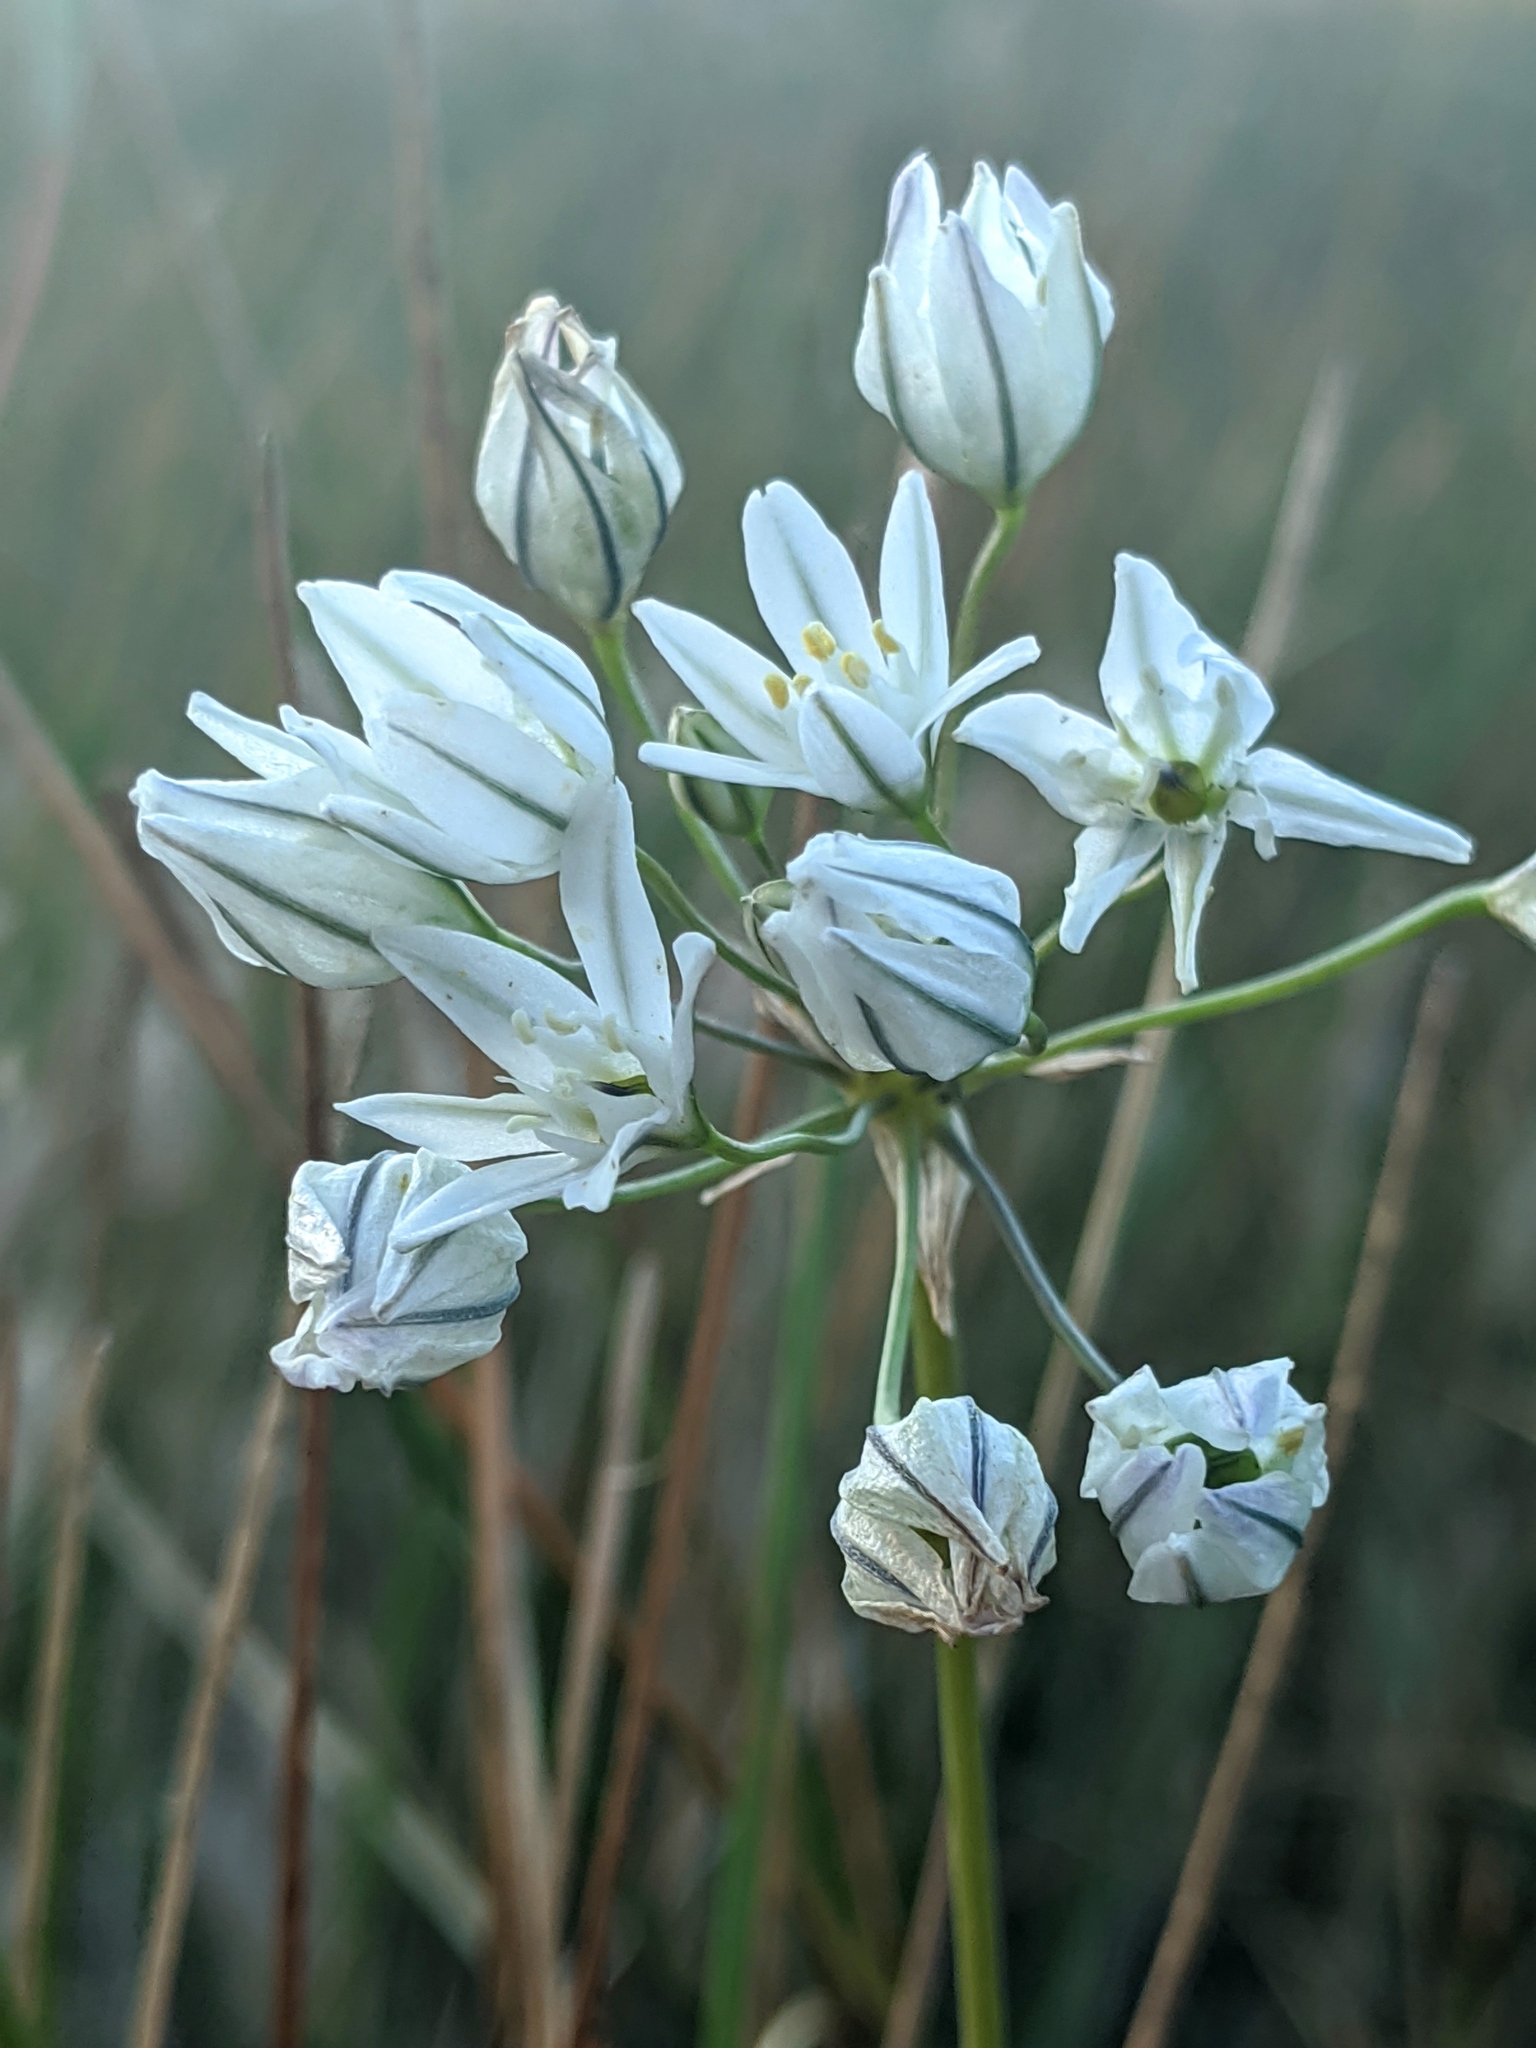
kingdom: Plantae
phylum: Tracheophyta
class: Liliopsida
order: Asparagales
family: Asparagaceae
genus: Triteleia
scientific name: Triteleia hyacinthina
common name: White brodiaea
